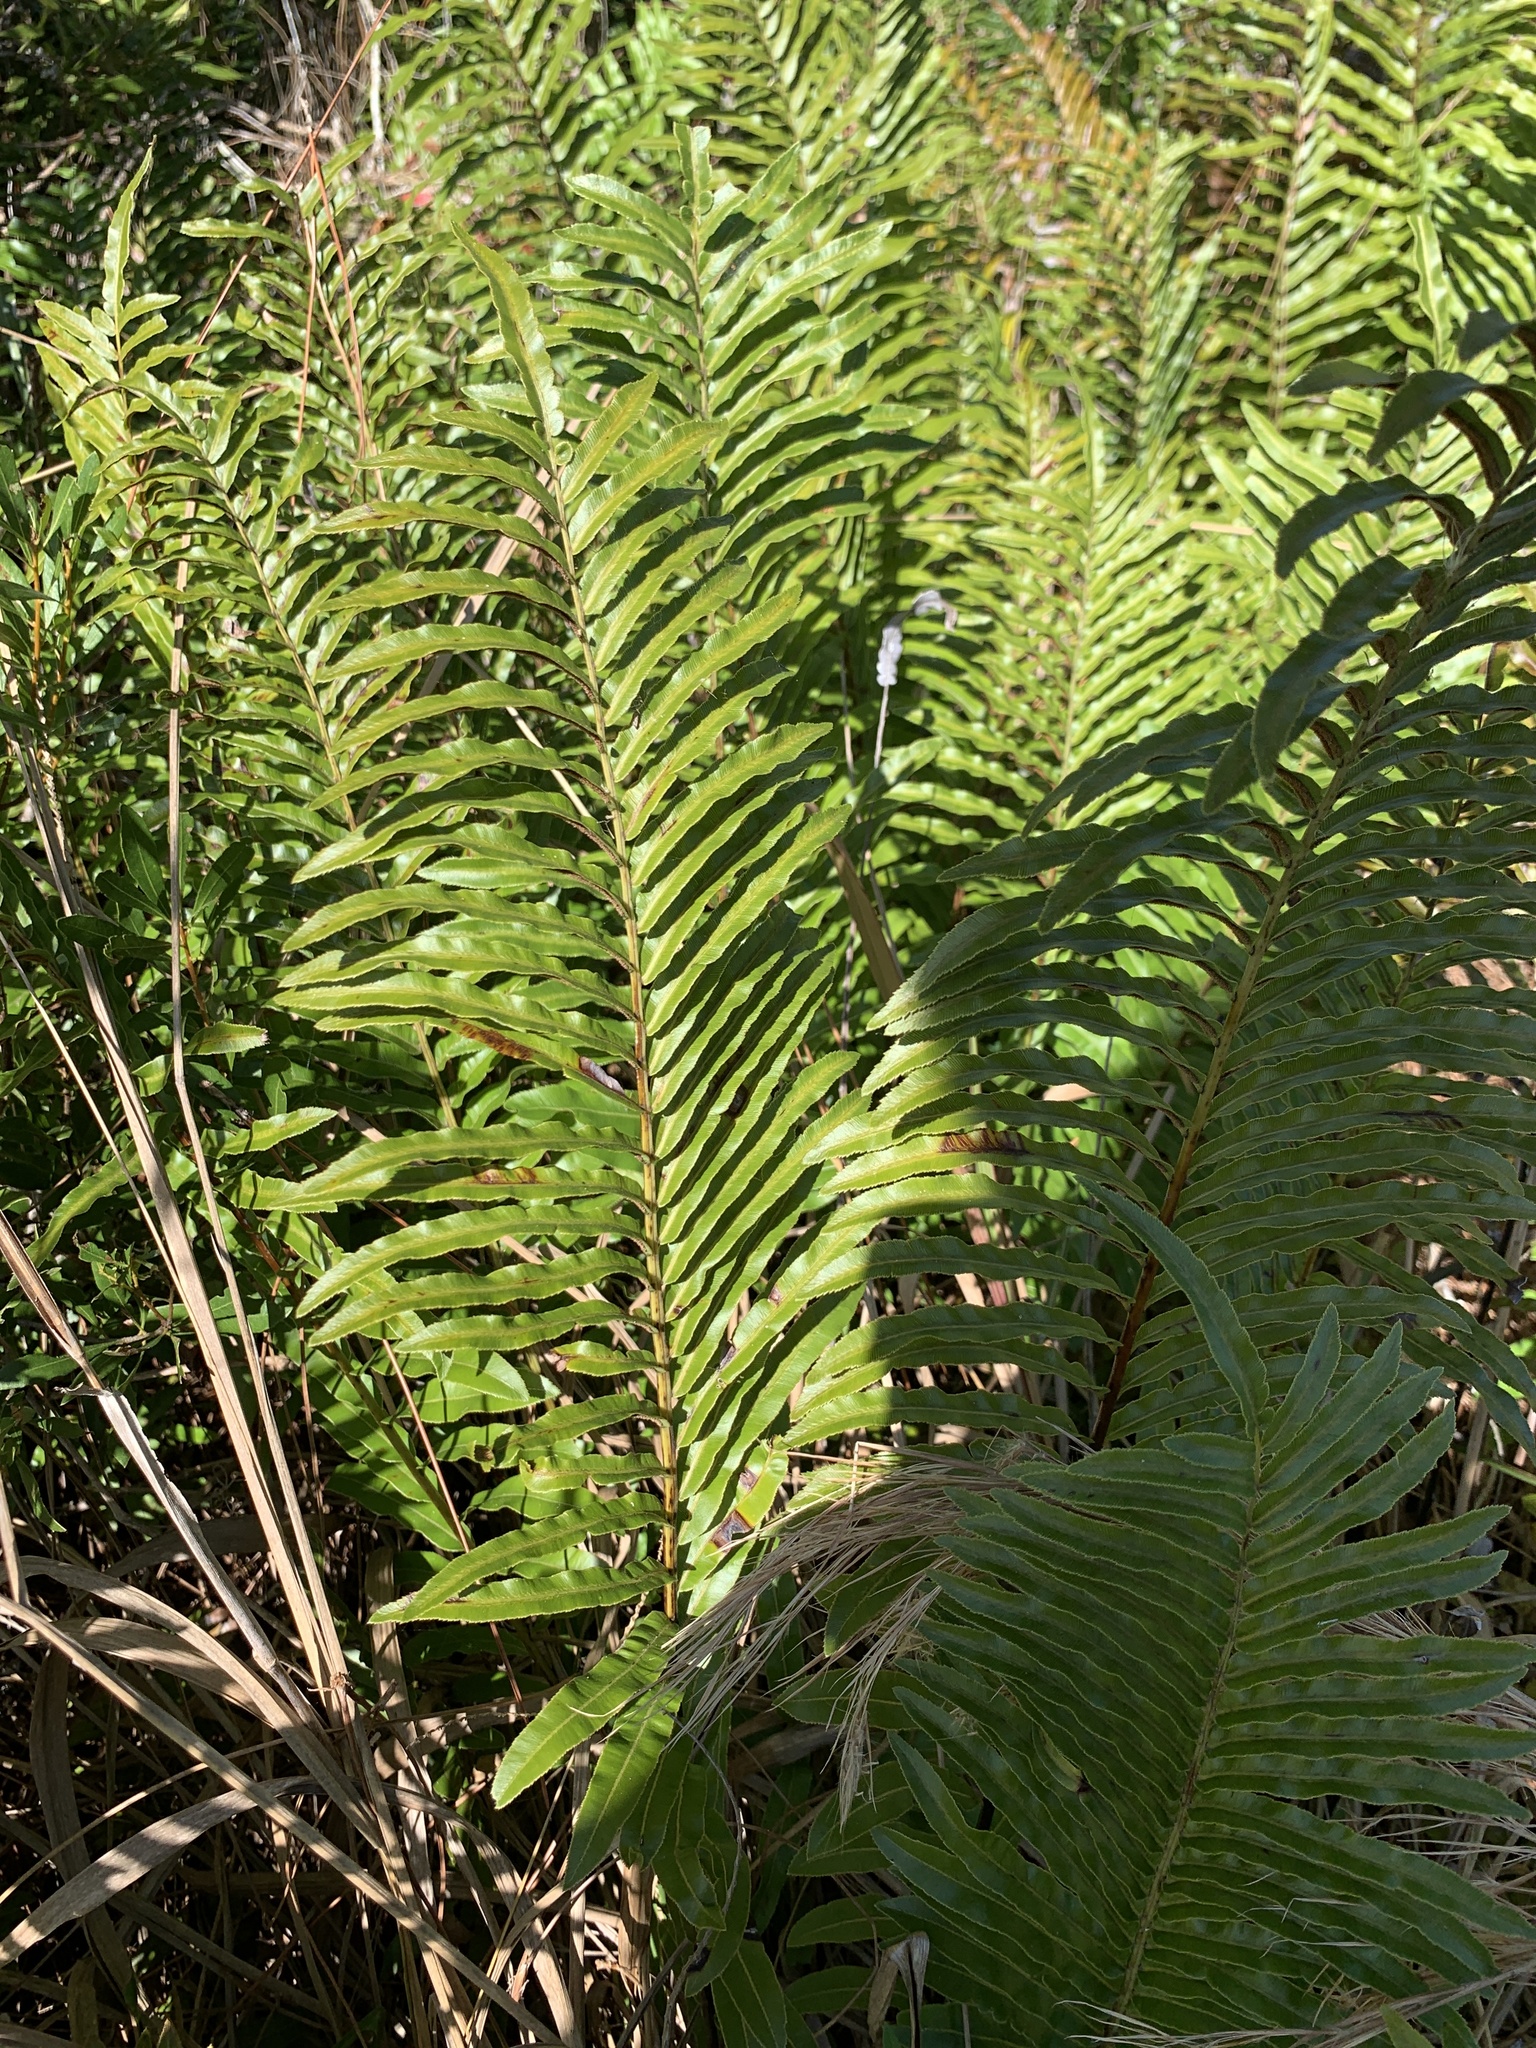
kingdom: Plantae
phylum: Tracheophyta
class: Polypodiopsida
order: Polypodiales
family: Blechnaceae
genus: Telmatoblechnum
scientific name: Telmatoblechnum serrulatum
